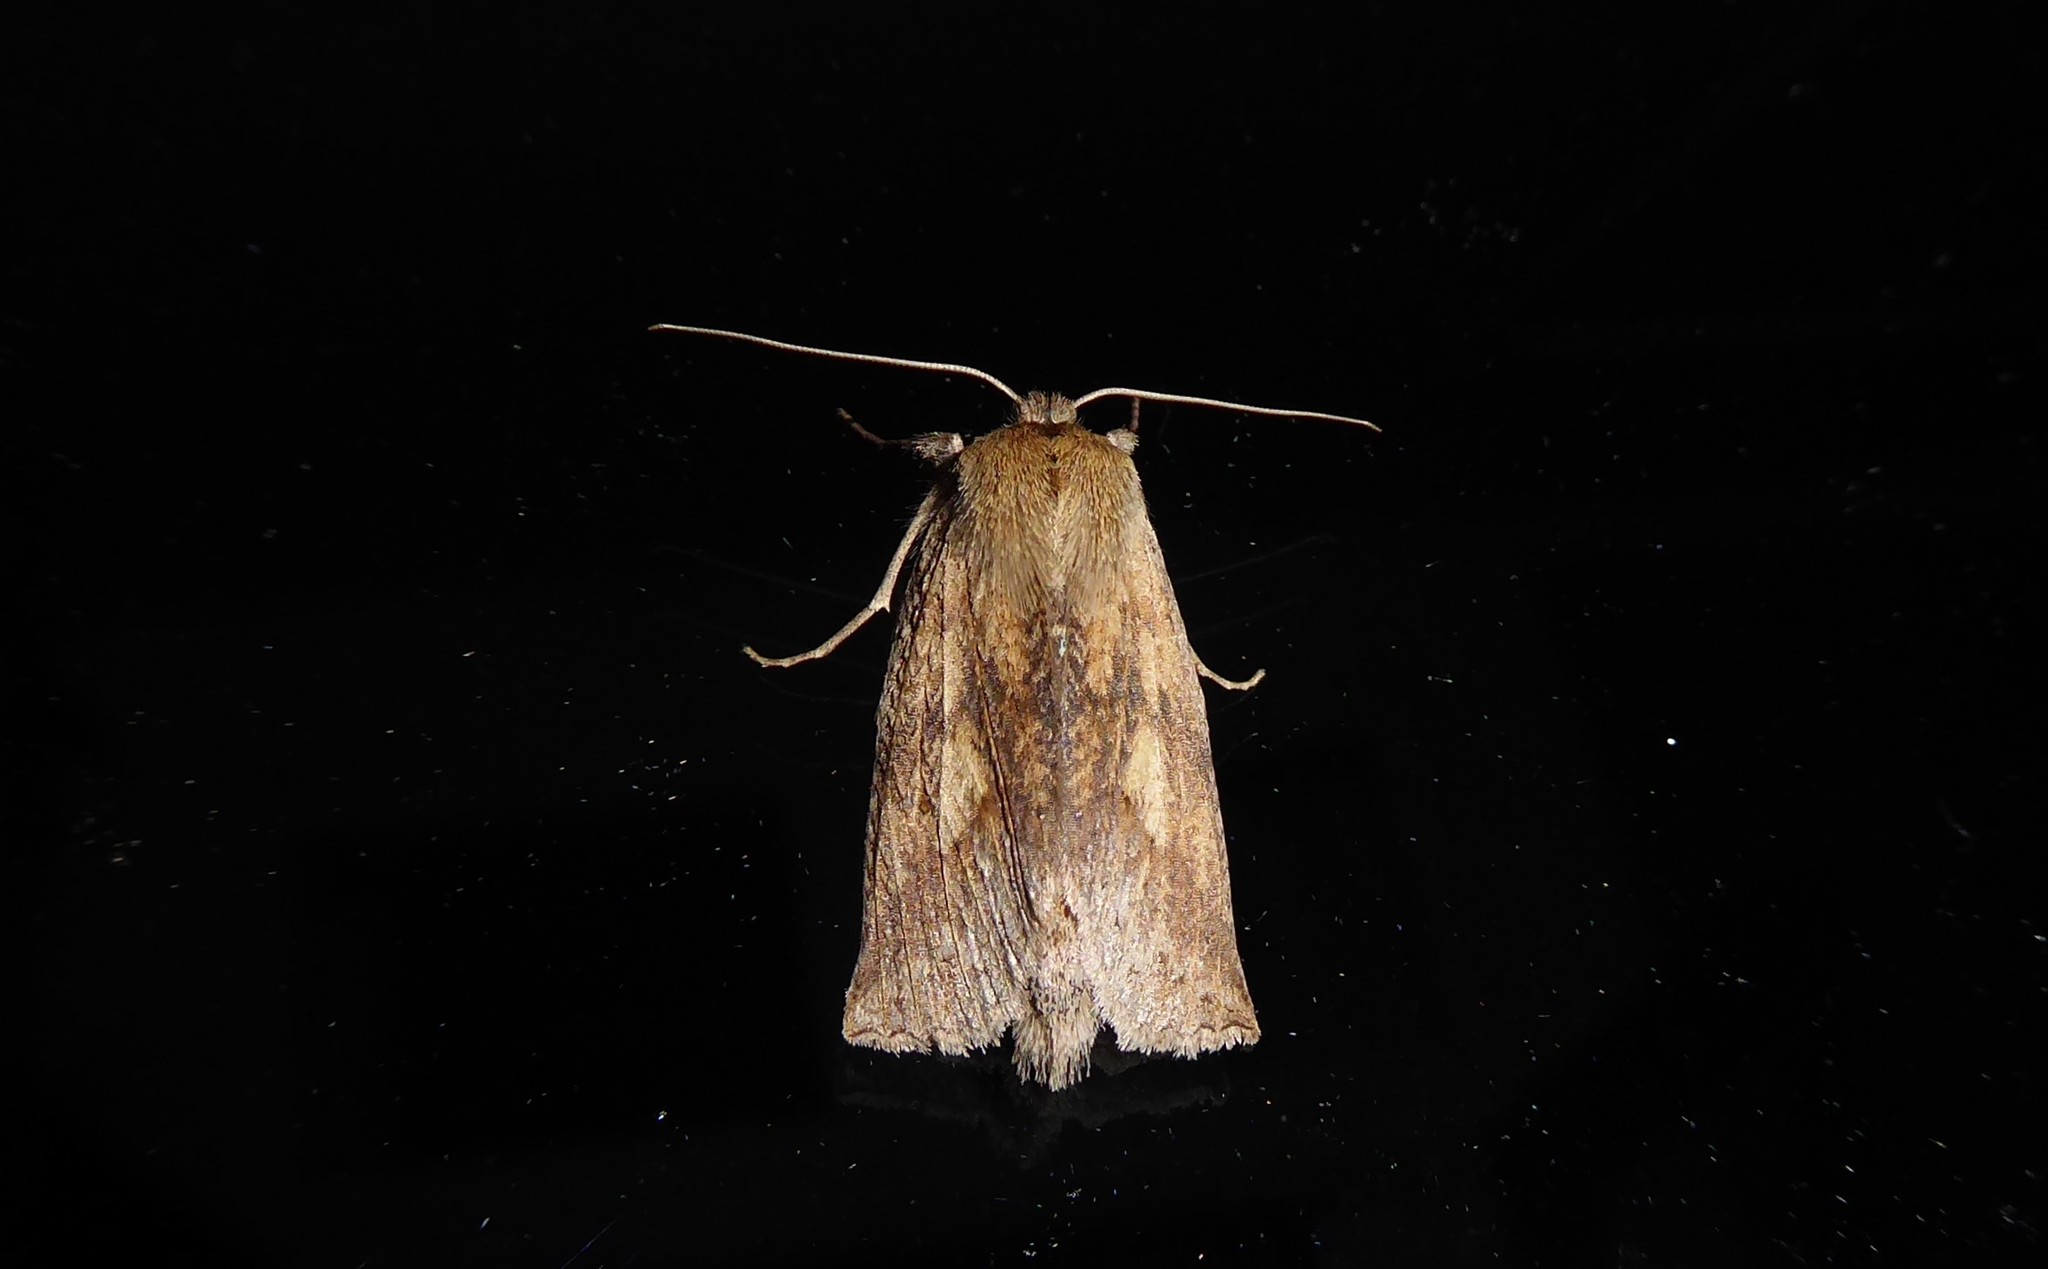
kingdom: Animalia
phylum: Arthropoda
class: Insecta
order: Lepidoptera
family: Geometridae
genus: Declana
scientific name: Declana leptomera
